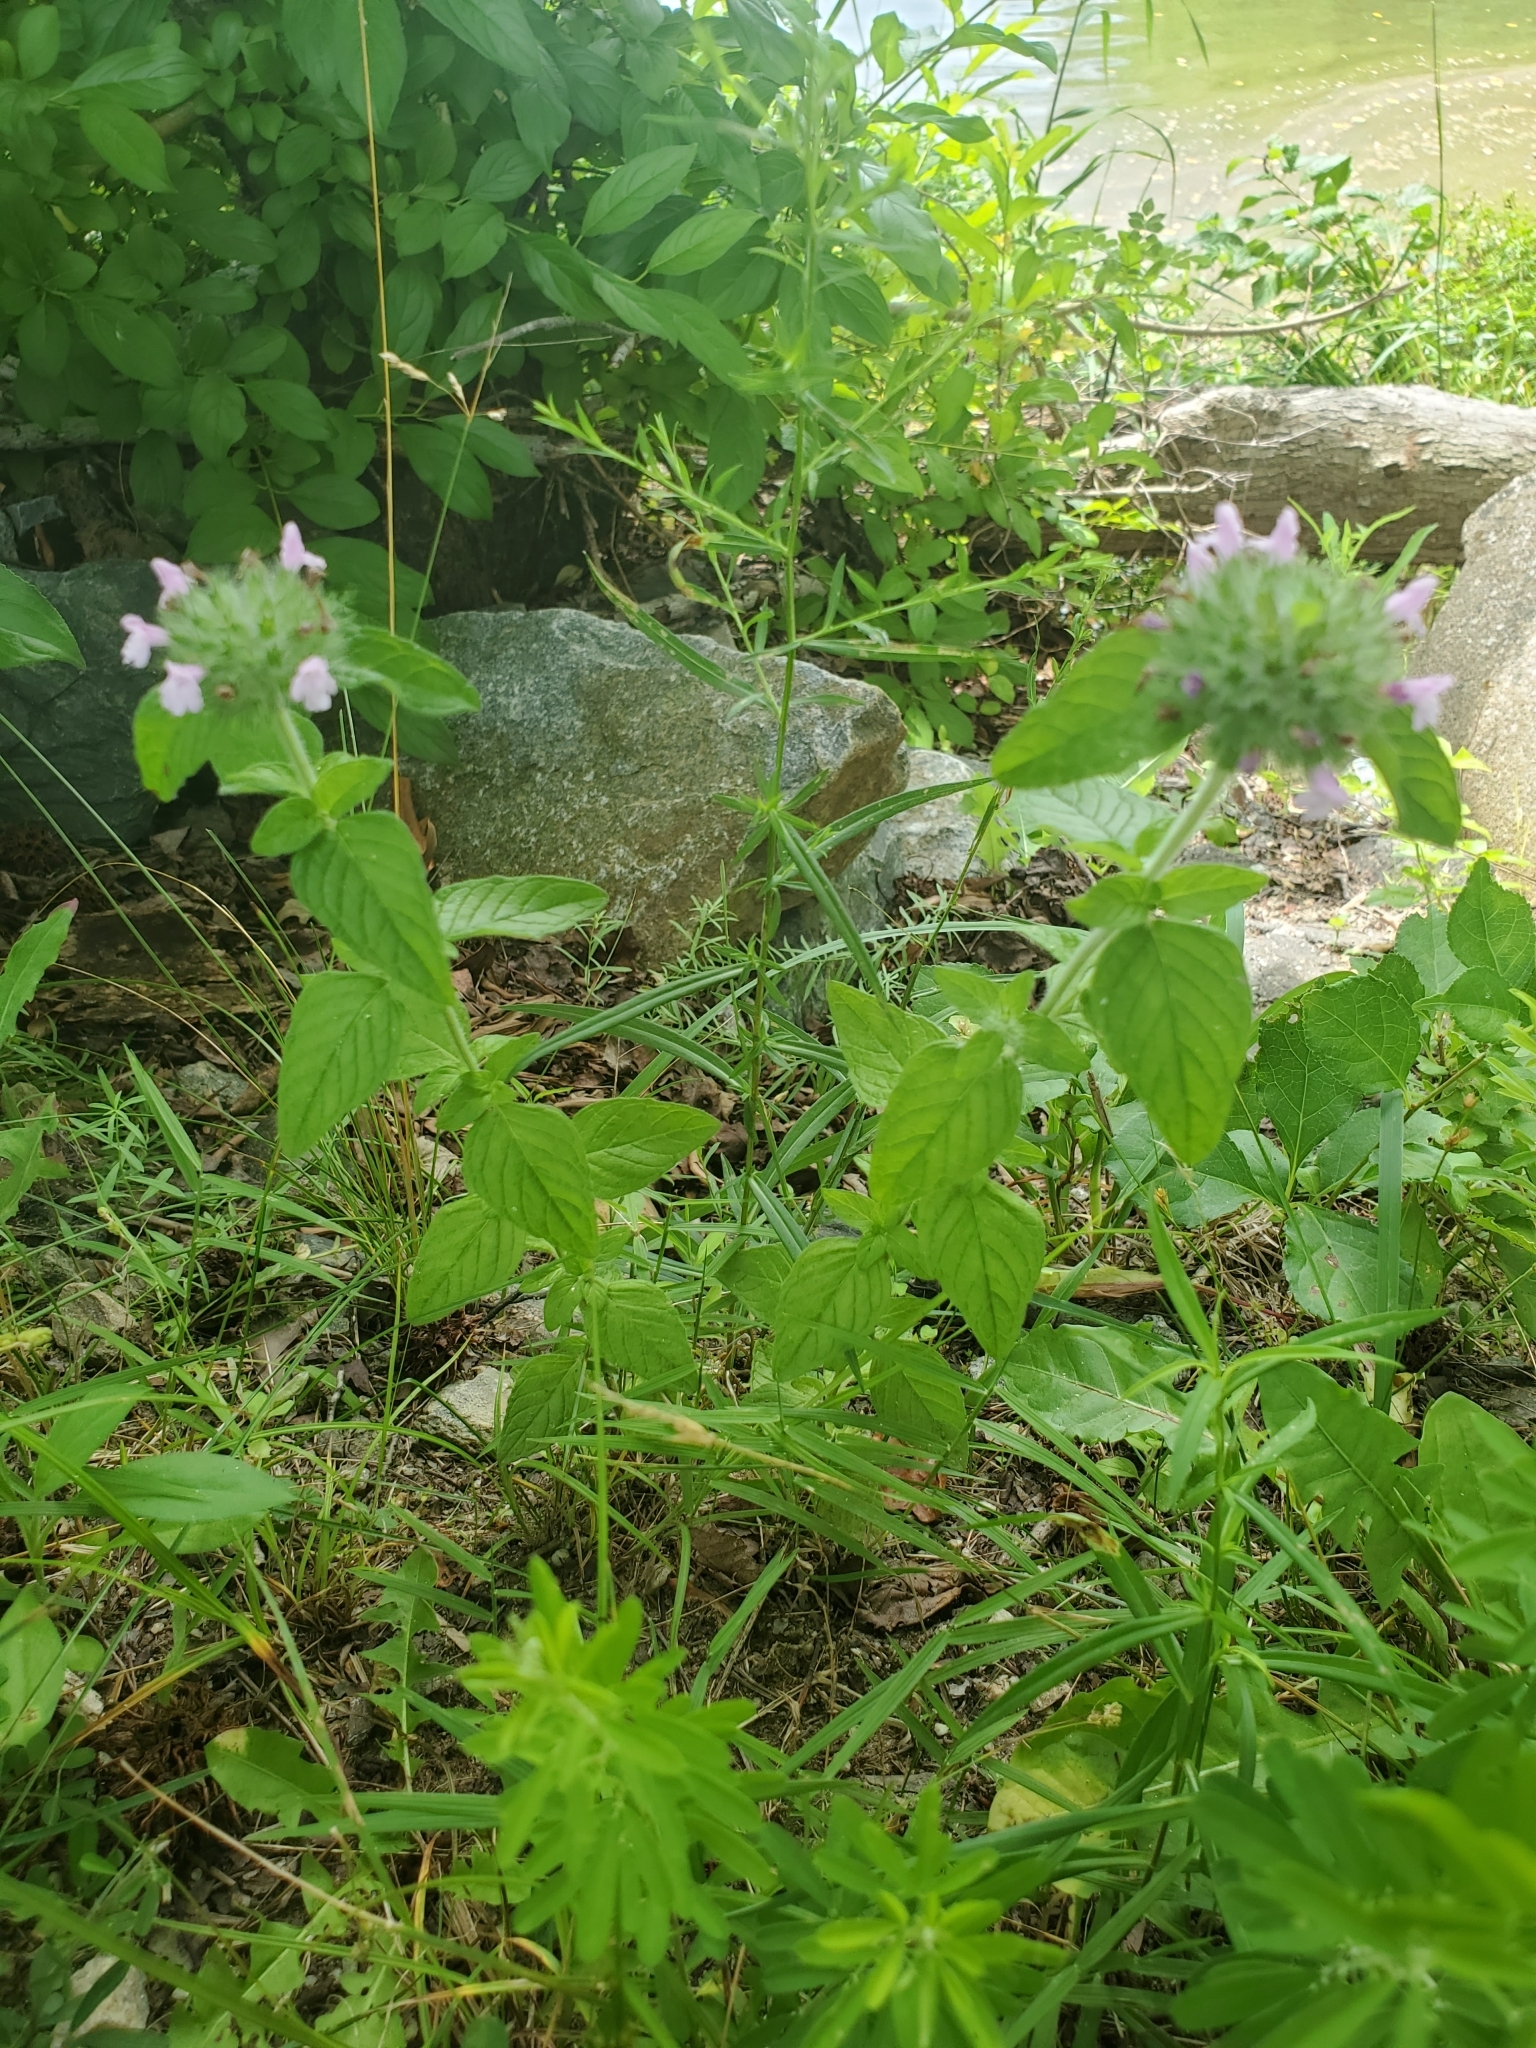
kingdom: Plantae
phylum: Tracheophyta
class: Magnoliopsida
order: Lamiales
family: Lamiaceae
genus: Clinopodium
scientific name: Clinopodium vulgare
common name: Wild basil
